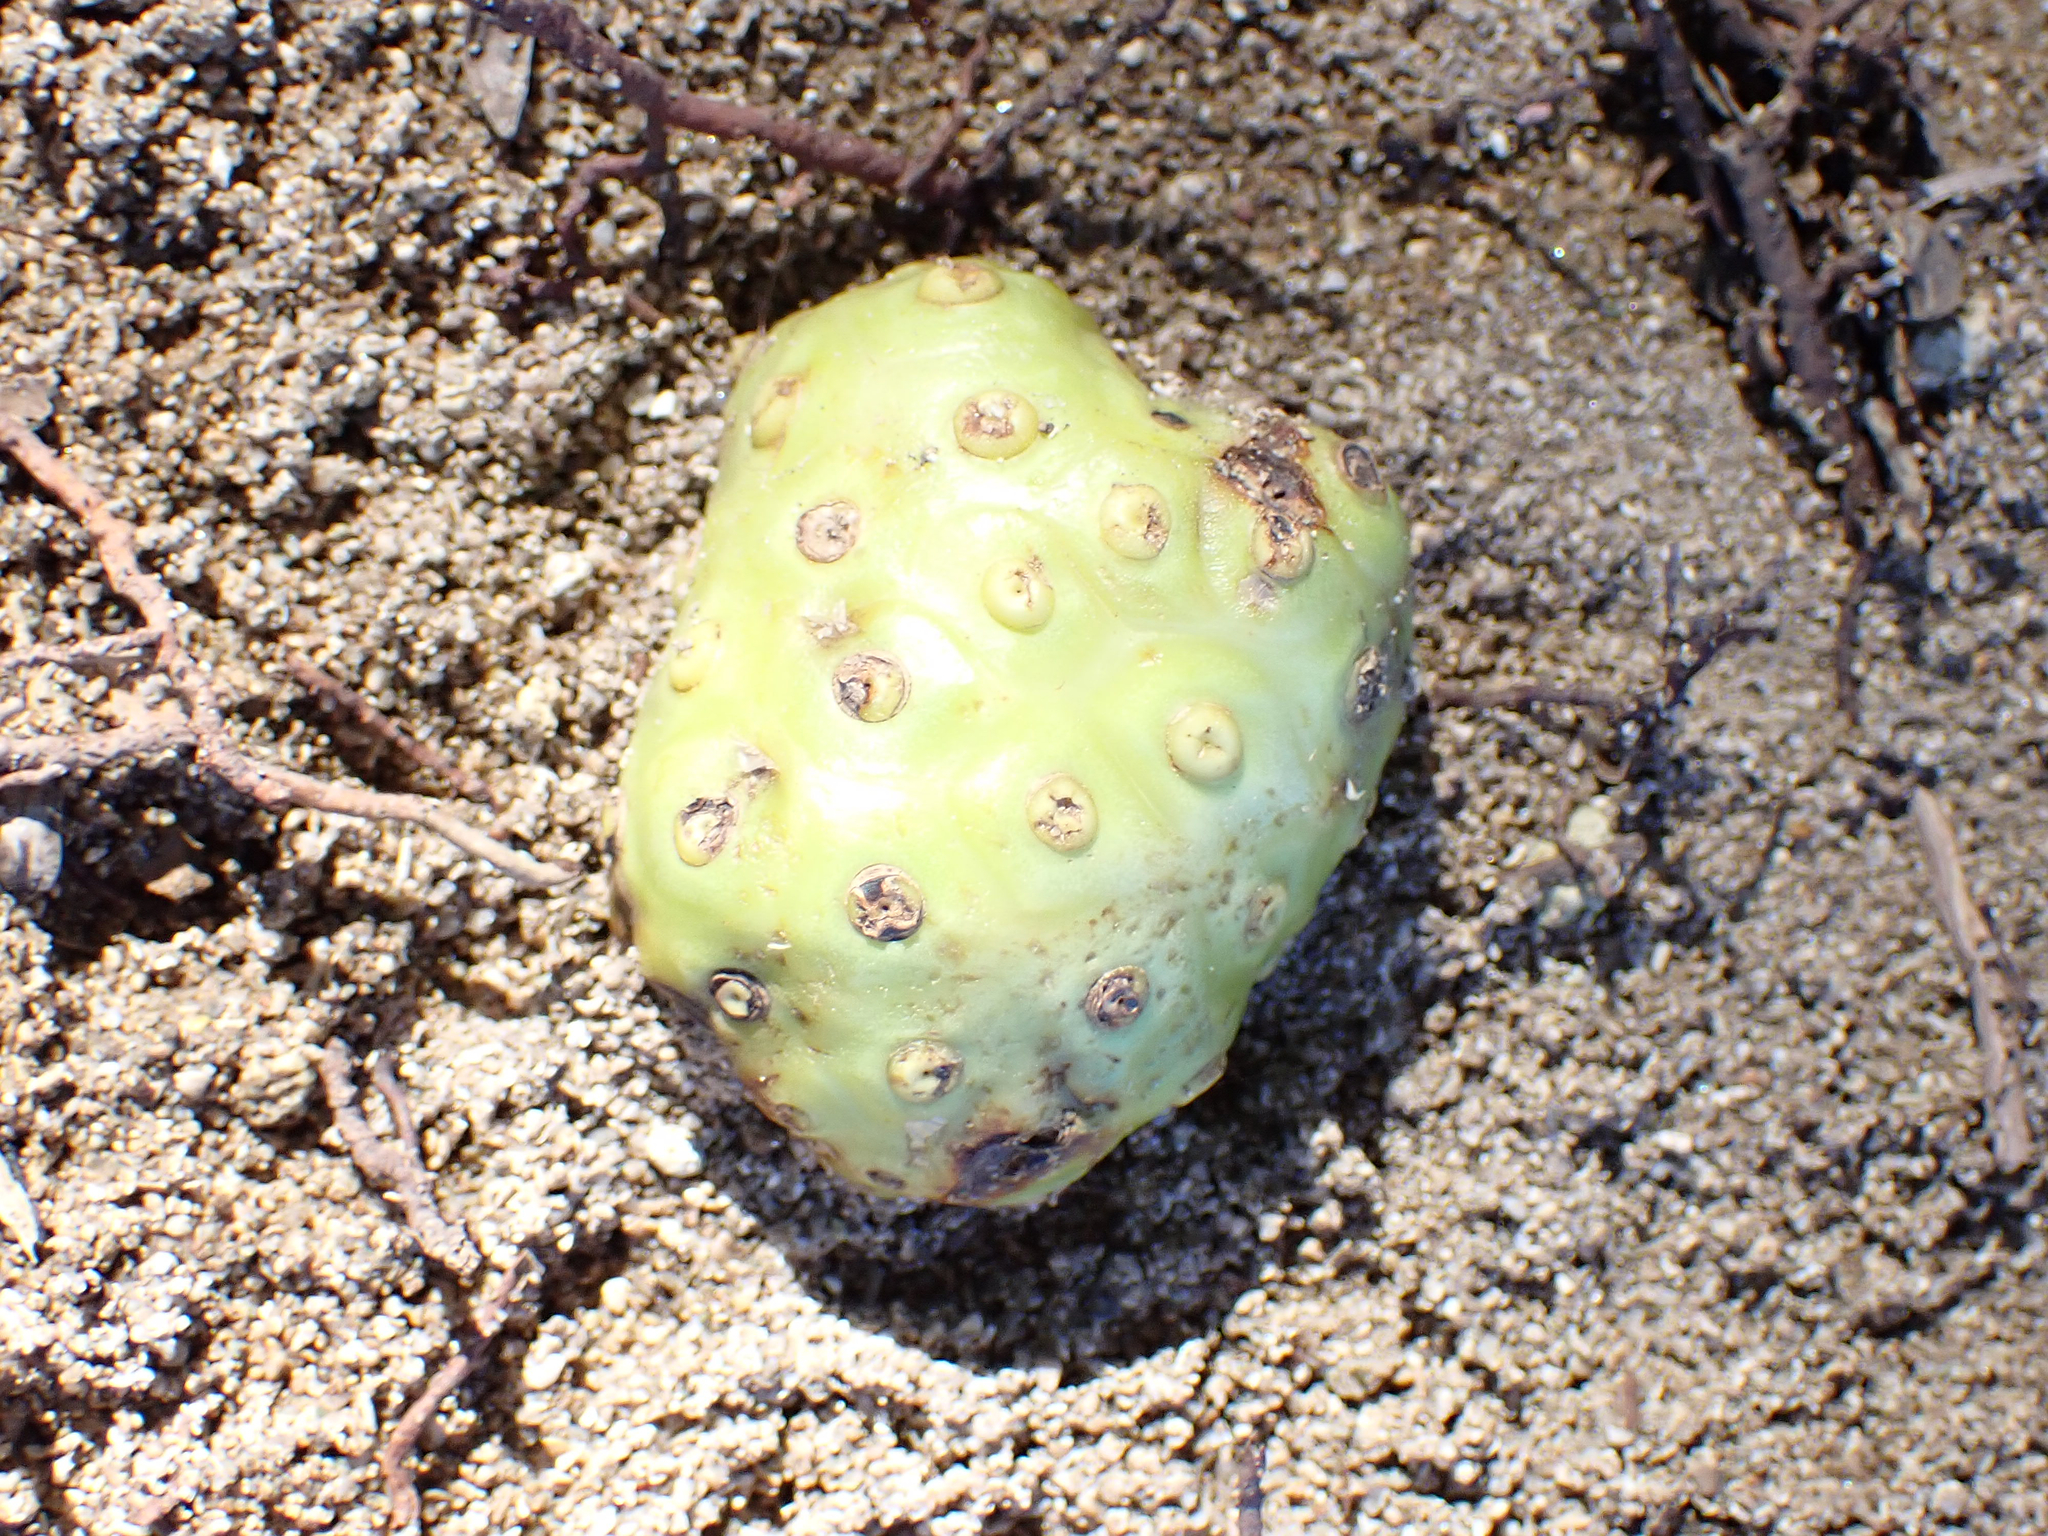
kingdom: Plantae
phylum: Tracheophyta
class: Magnoliopsida
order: Gentianales
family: Rubiaceae
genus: Morinda
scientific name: Morinda citrifolia
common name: Indian-mulberry
